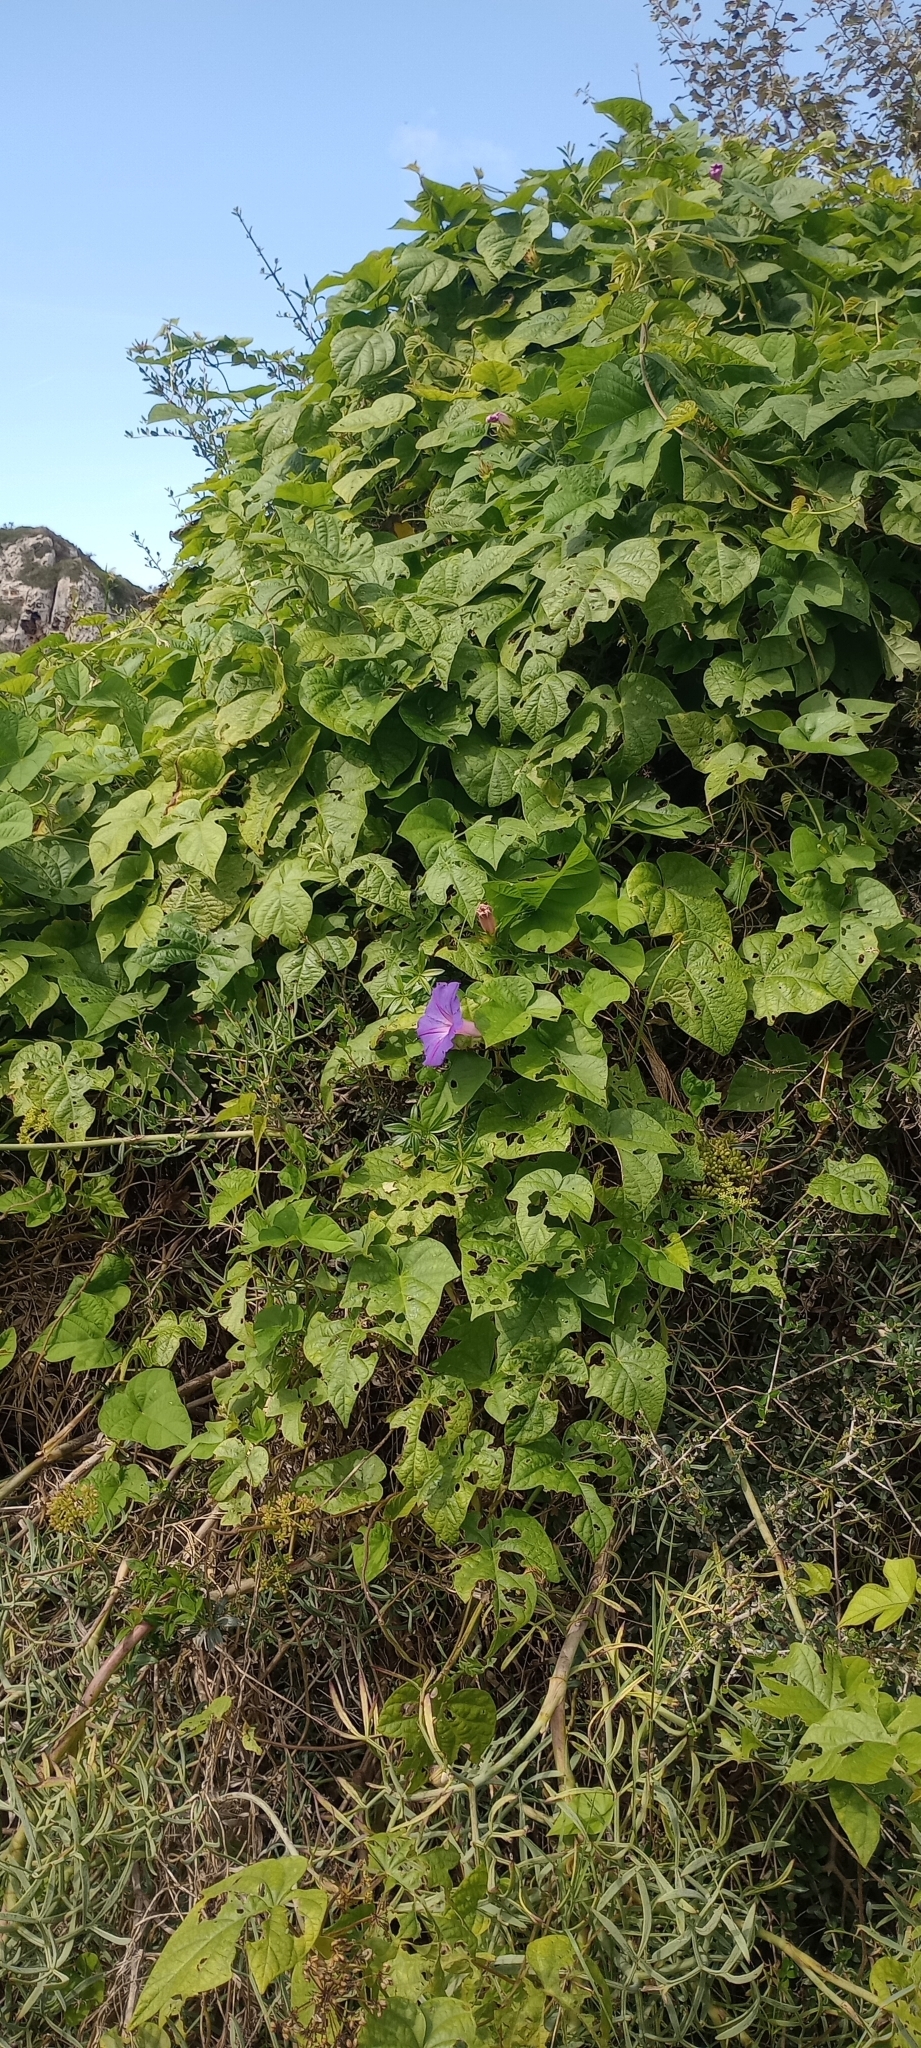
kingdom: Plantae
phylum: Tracheophyta
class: Magnoliopsida
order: Solanales
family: Convolvulaceae
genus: Ipomoea
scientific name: Ipomoea indica
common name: Blue dawnflower
